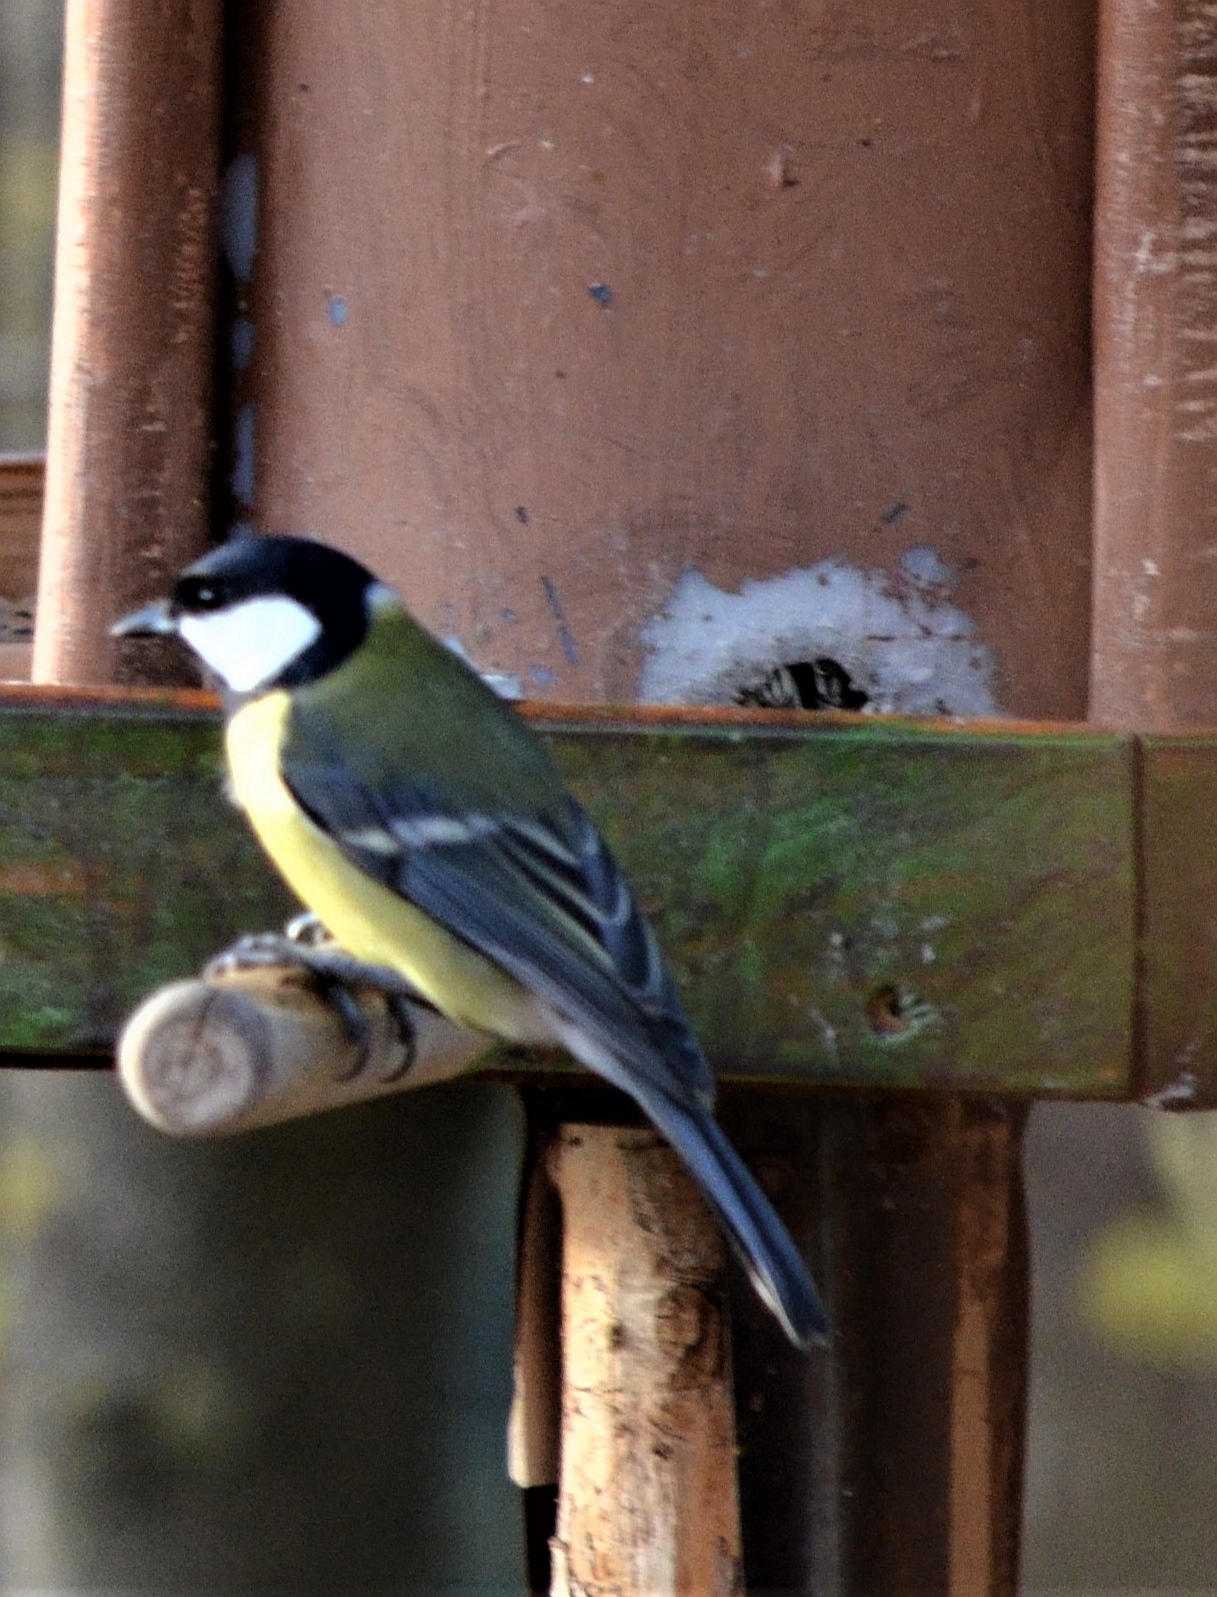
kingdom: Animalia
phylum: Chordata
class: Aves
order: Passeriformes
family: Paridae
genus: Parus
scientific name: Parus major
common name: Great tit
